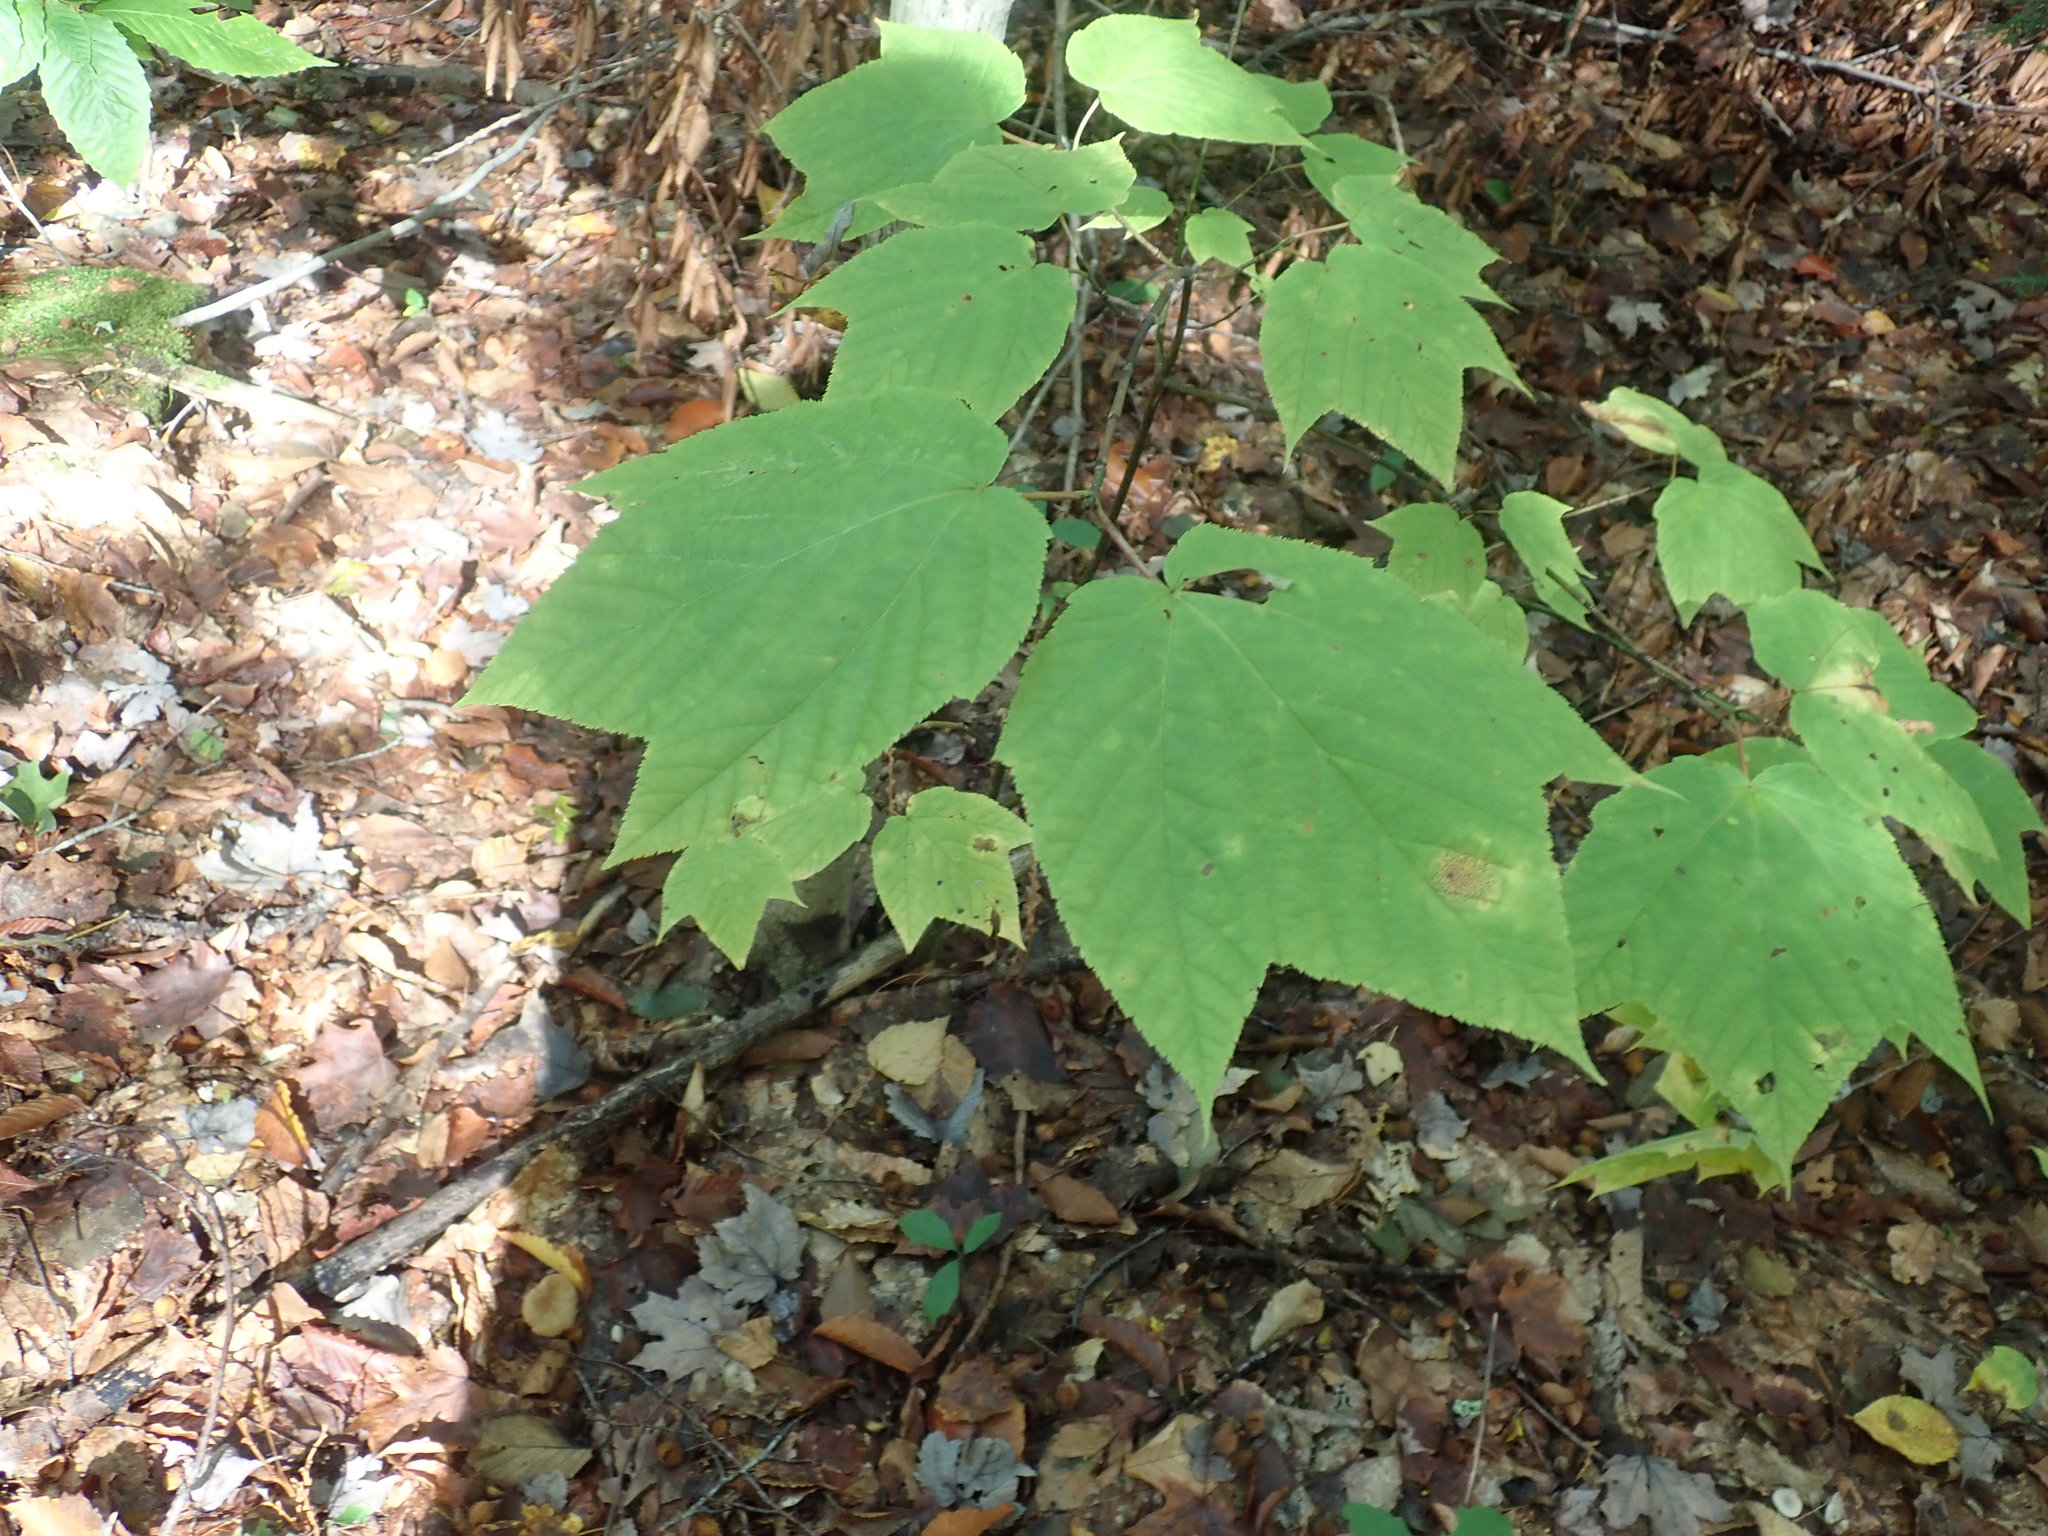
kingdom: Plantae
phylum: Tracheophyta
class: Magnoliopsida
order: Sapindales
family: Sapindaceae
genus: Acer
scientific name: Acer pensylvanicum
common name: Moosewood
